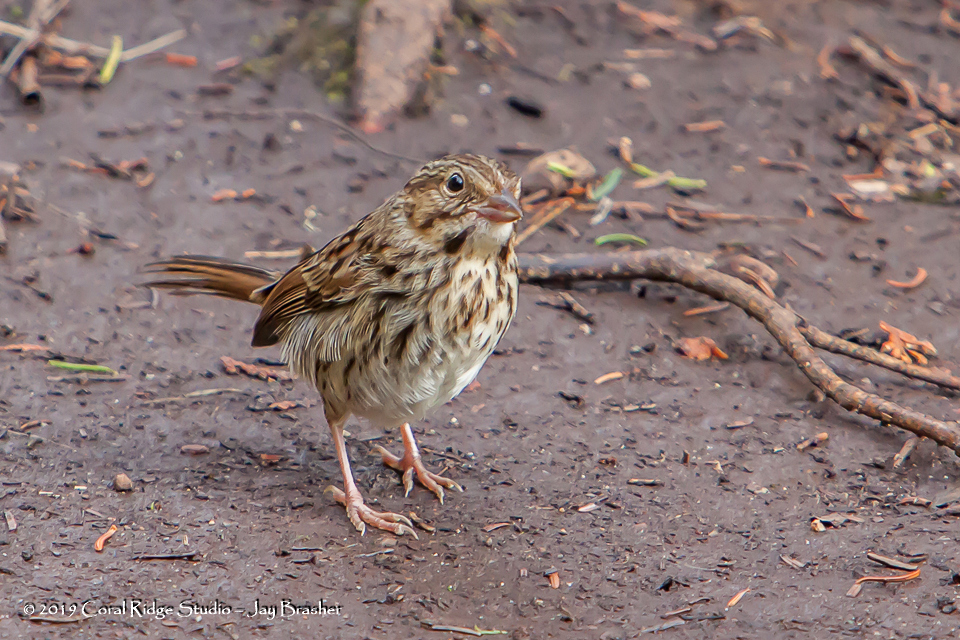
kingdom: Animalia
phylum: Chordata
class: Aves
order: Passeriformes
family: Passerellidae
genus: Melospiza
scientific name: Melospiza melodia
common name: Song sparrow
